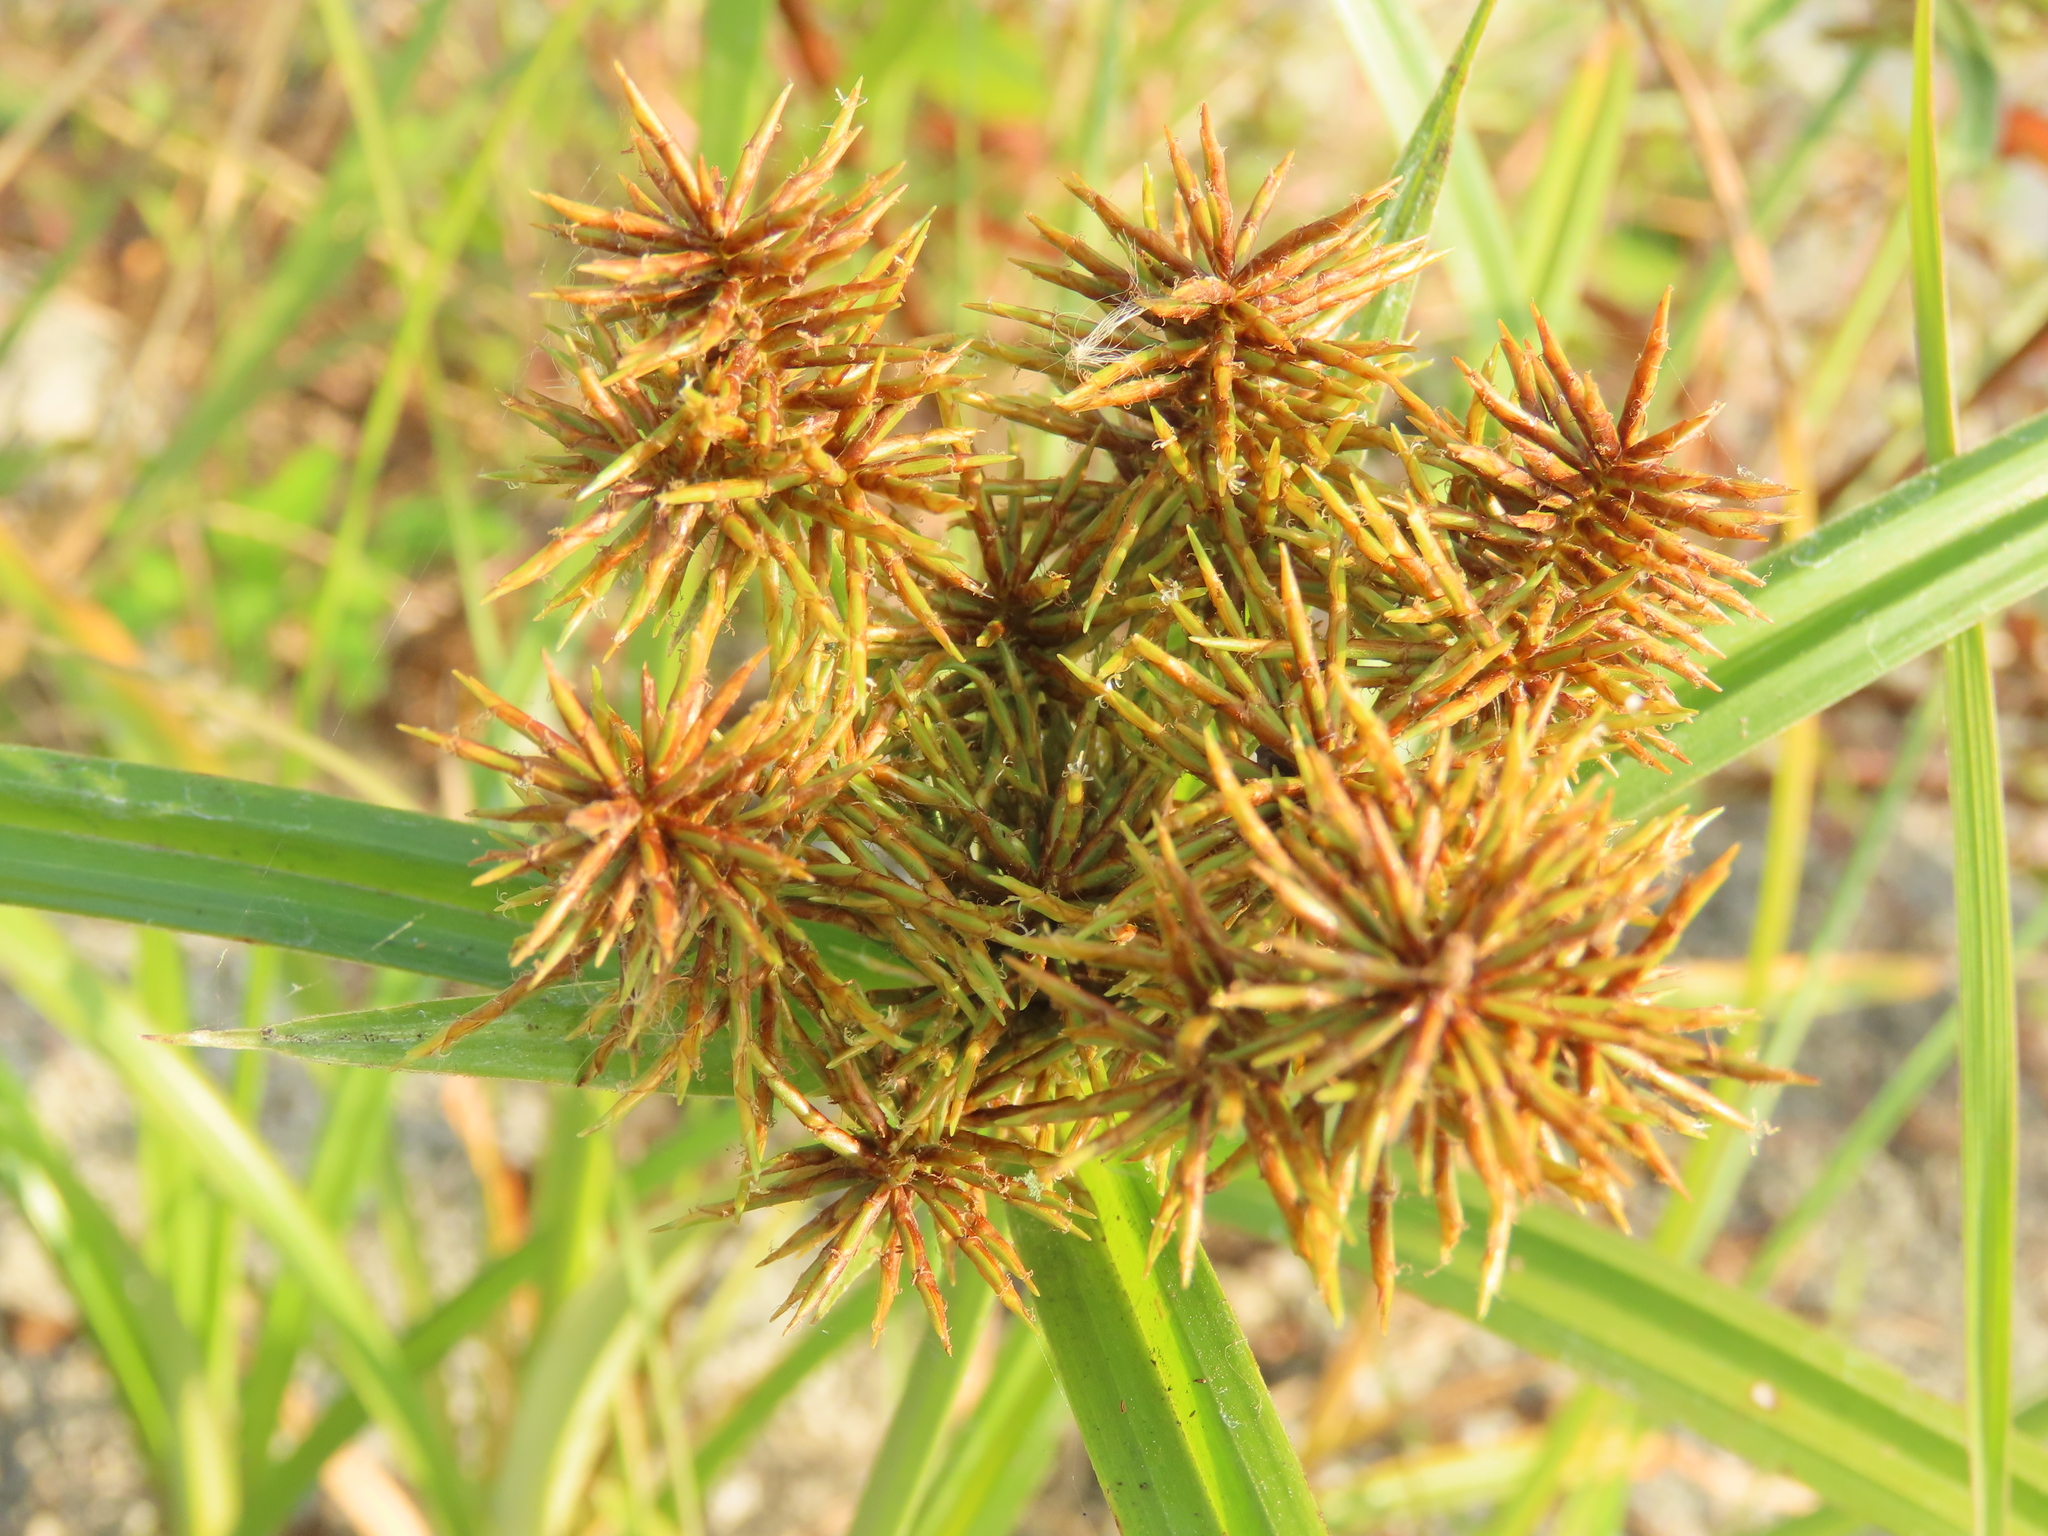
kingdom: Plantae
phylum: Tracheophyta
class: Liliopsida
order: Poales
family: Cyperaceae
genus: Cyperus
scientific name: Cyperus odoratus
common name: Fragrant flatsedge
